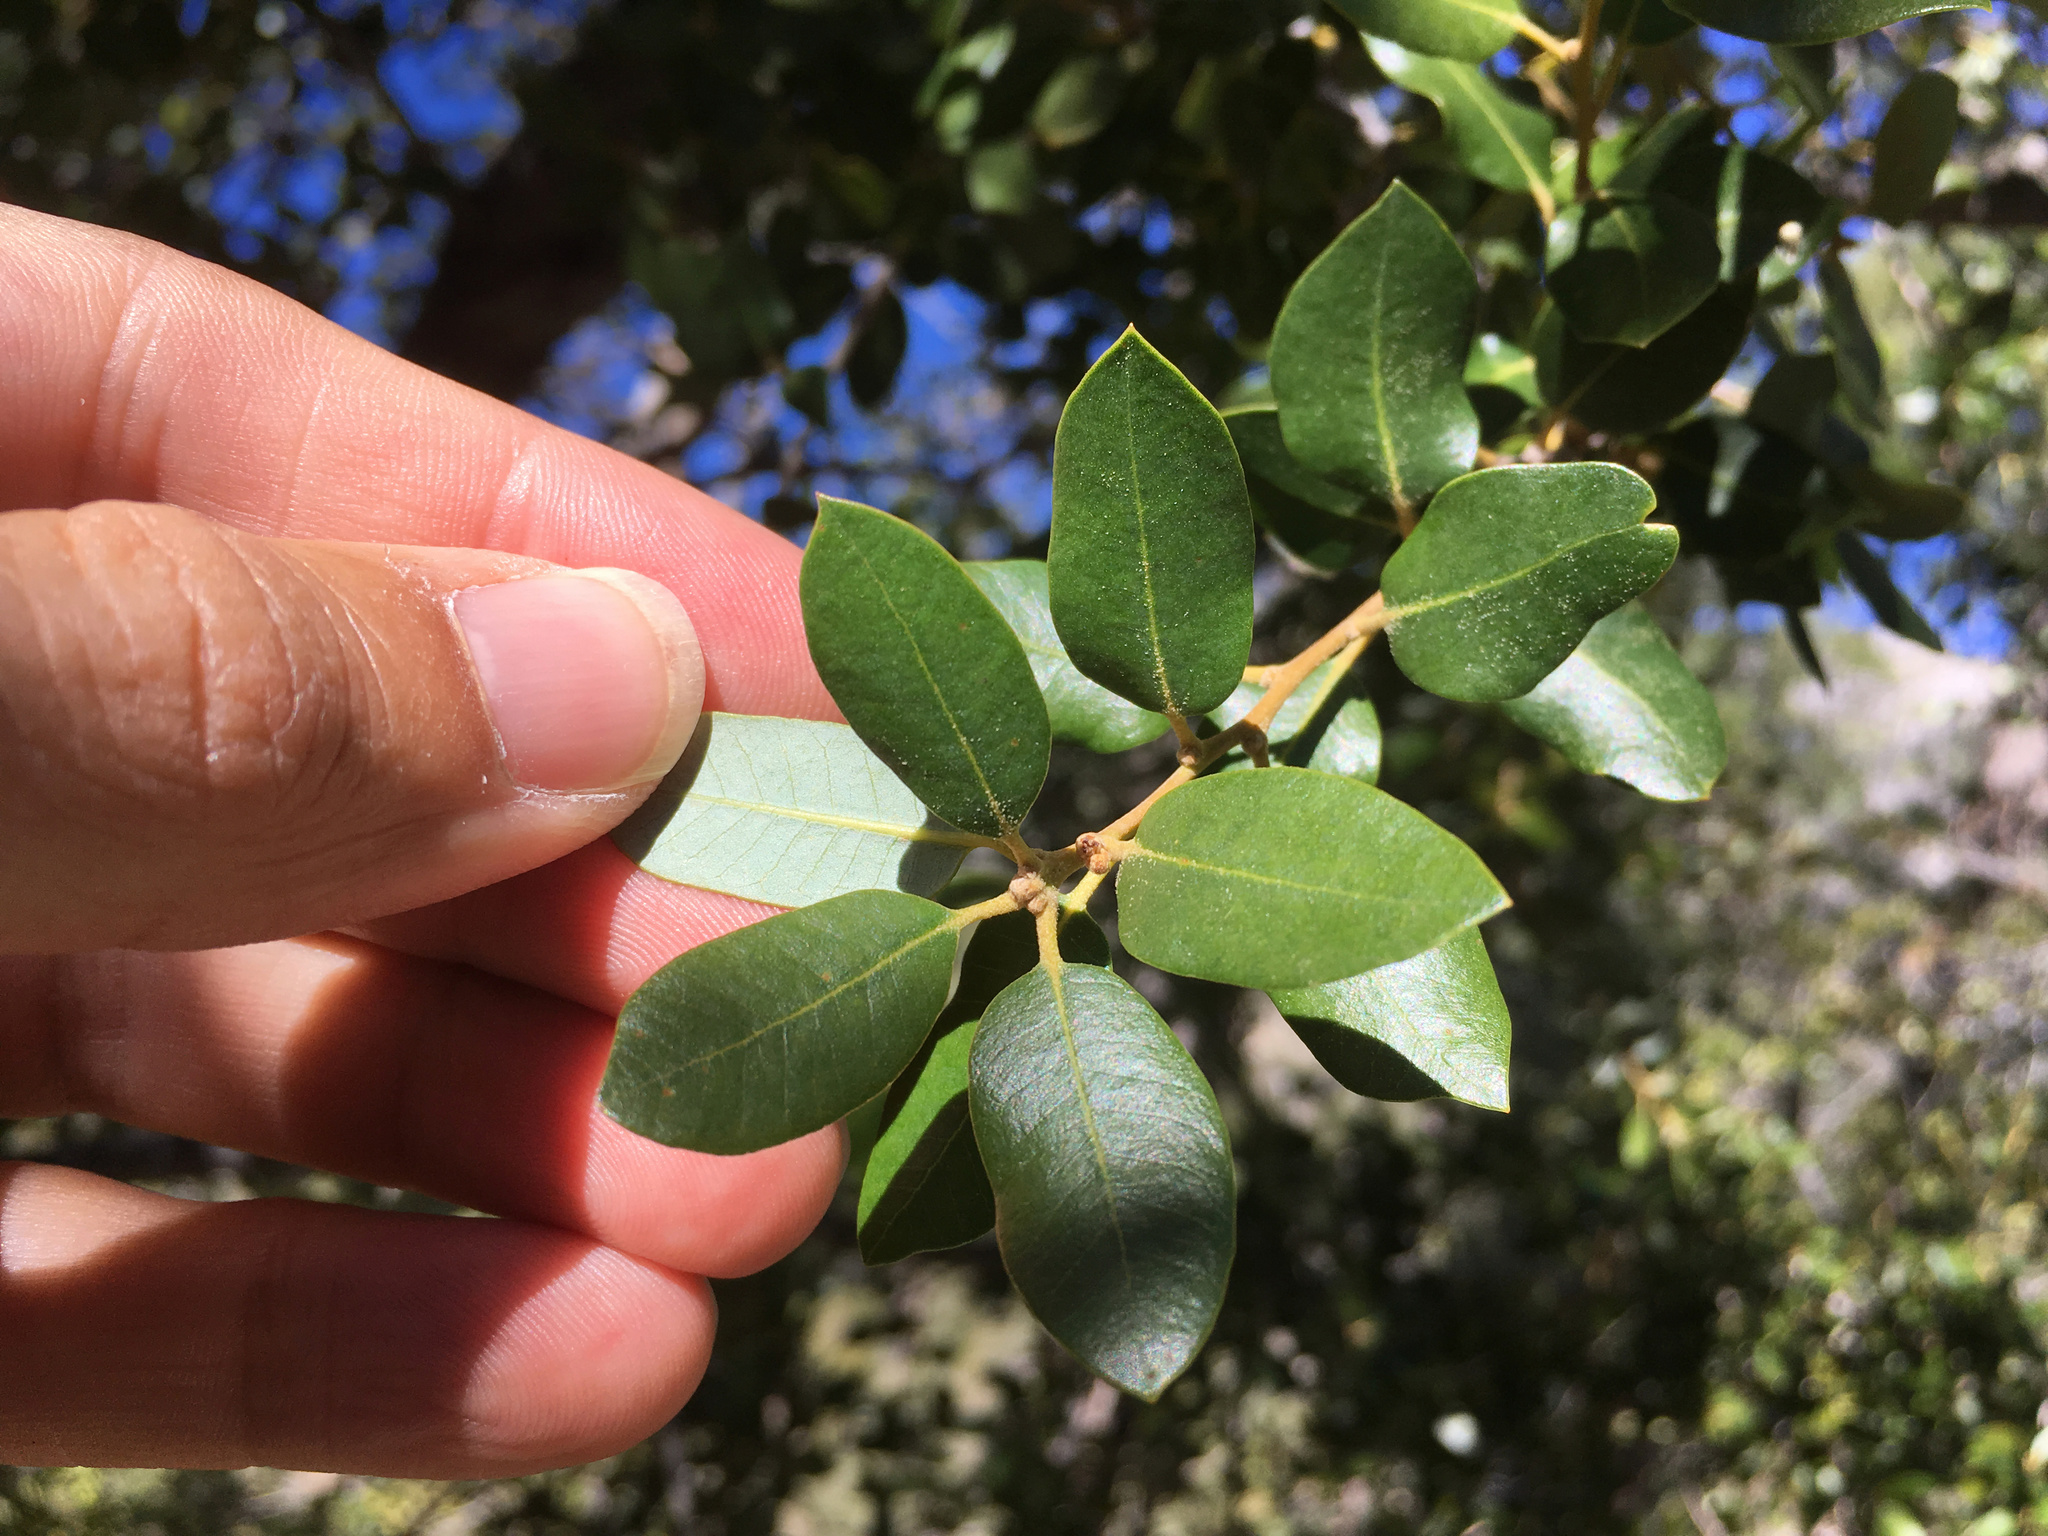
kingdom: Plantae
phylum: Tracheophyta
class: Magnoliopsida
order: Fagales
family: Fagaceae
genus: Quercus
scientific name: Quercus chrysolepis
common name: Canyon live oak
